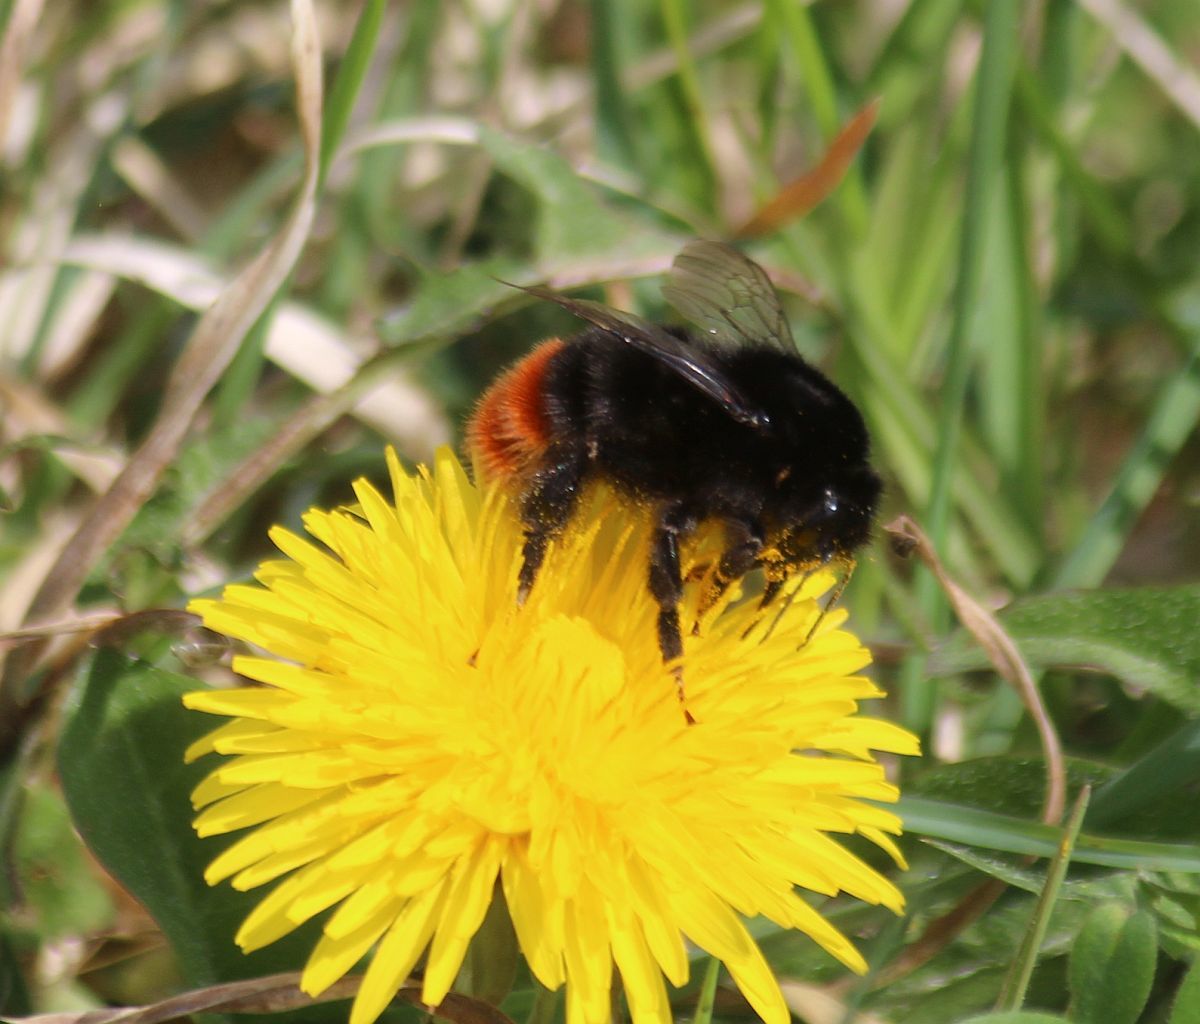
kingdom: Animalia
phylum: Arthropoda
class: Insecta
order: Hymenoptera
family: Apidae
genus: Bombus
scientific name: Bombus lapidarius
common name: Large red-tailed humble-bee
